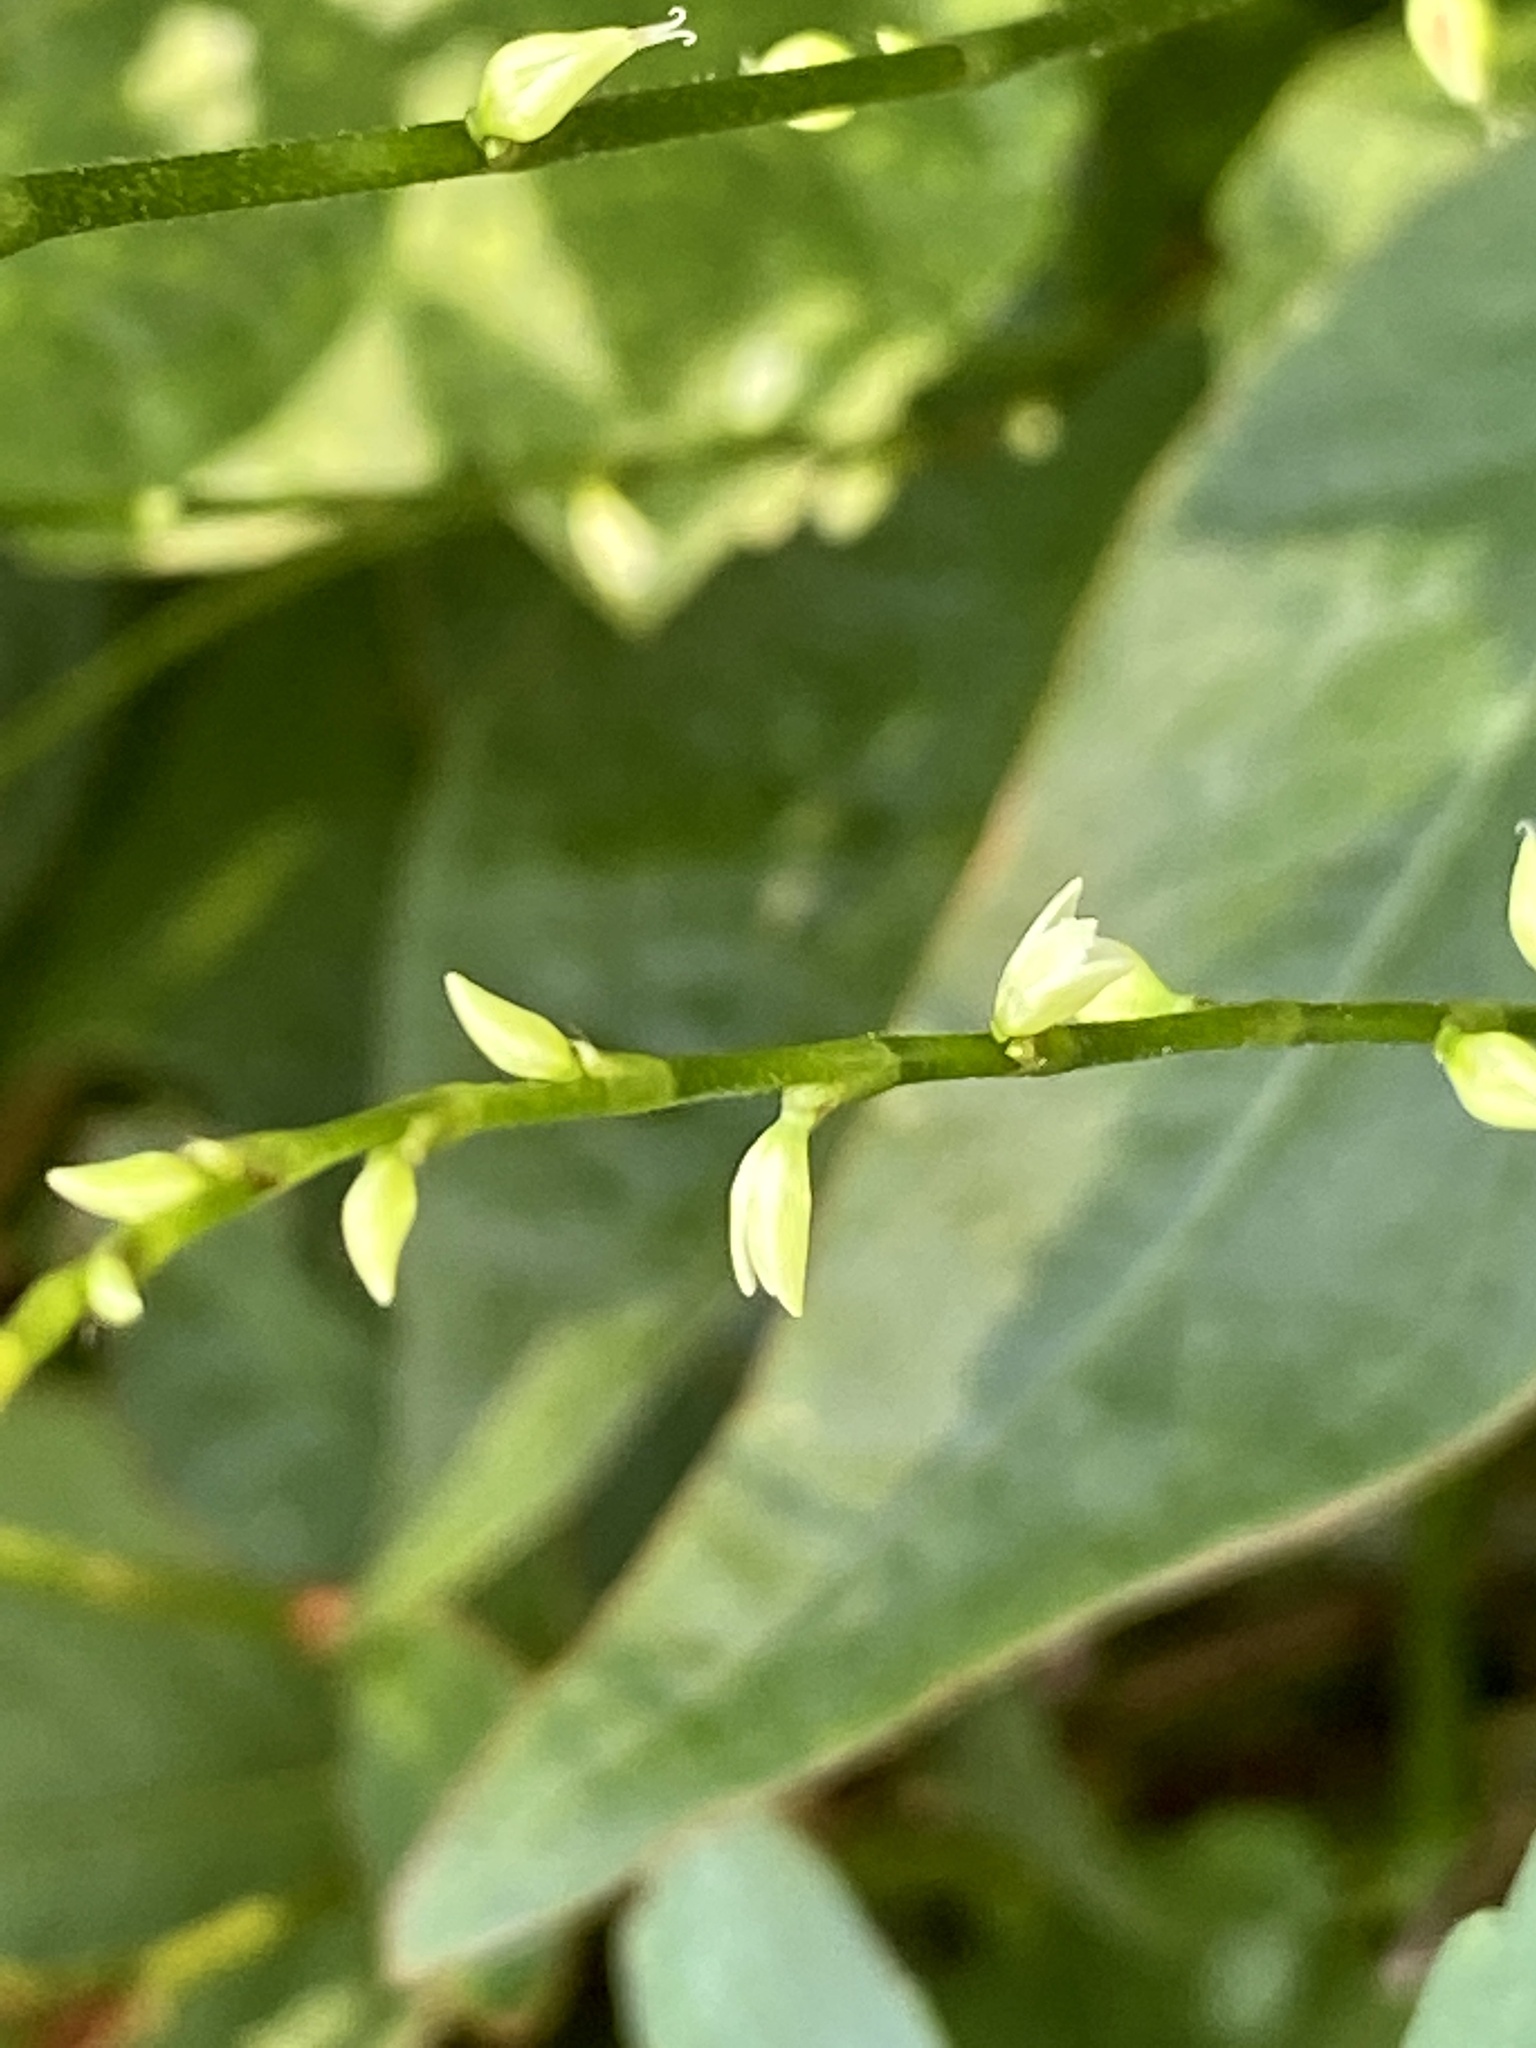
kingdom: Plantae
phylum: Tracheophyta
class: Magnoliopsida
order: Caryophyllales
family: Polygonaceae
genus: Persicaria
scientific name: Persicaria virginiana
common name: Jumpseed
